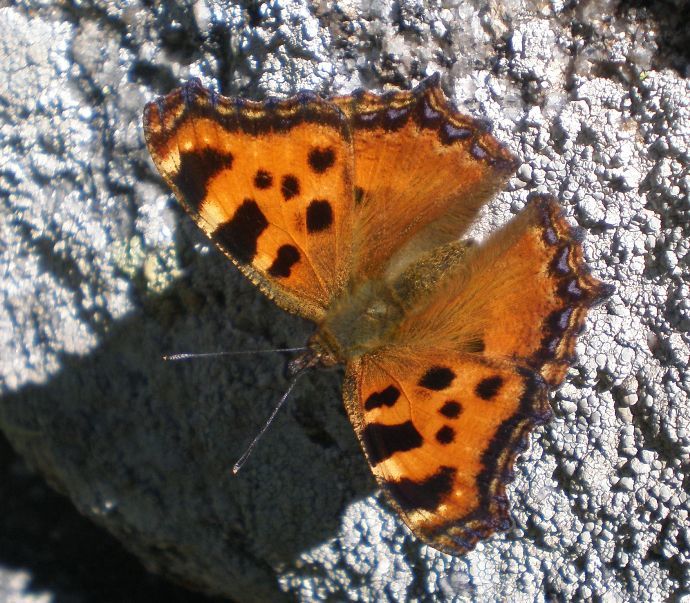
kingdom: Animalia
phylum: Arthropoda
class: Insecta
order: Lepidoptera
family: Nymphalidae
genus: Nymphalis
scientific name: Nymphalis polychloros
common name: Large tortoiseshell
